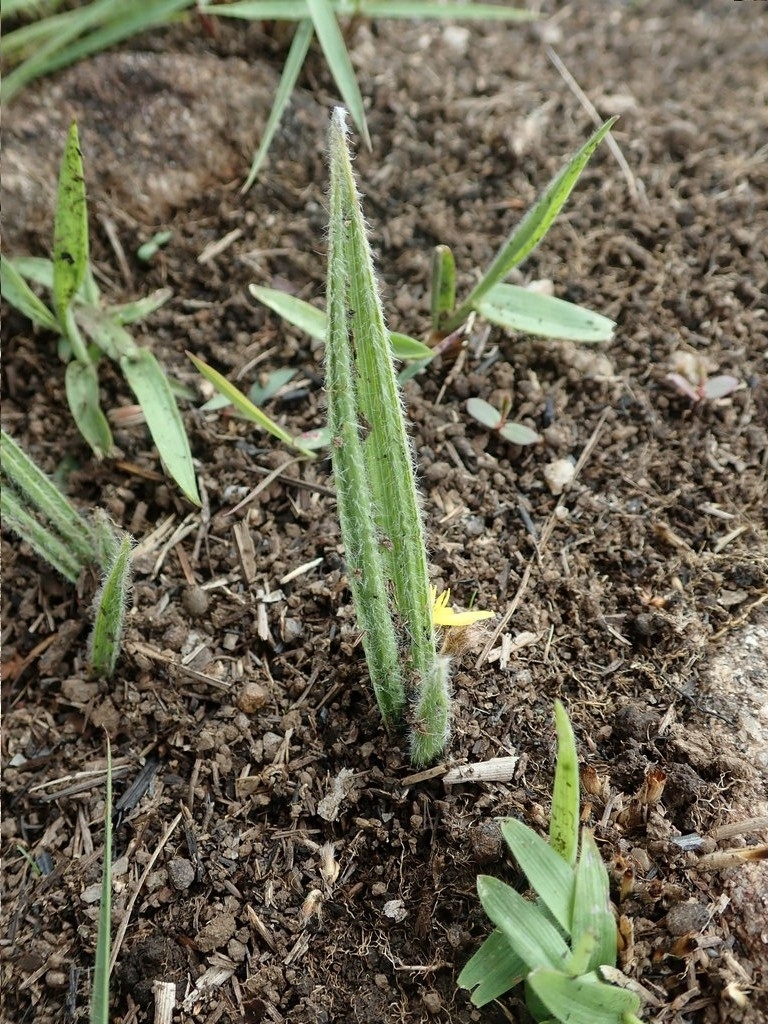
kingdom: Plantae
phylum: Tracheophyta
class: Liliopsida
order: Asparagales
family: Hypoxidaceae
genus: Curculigo
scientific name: Curculigo orchioides
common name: Golden eye-grass
